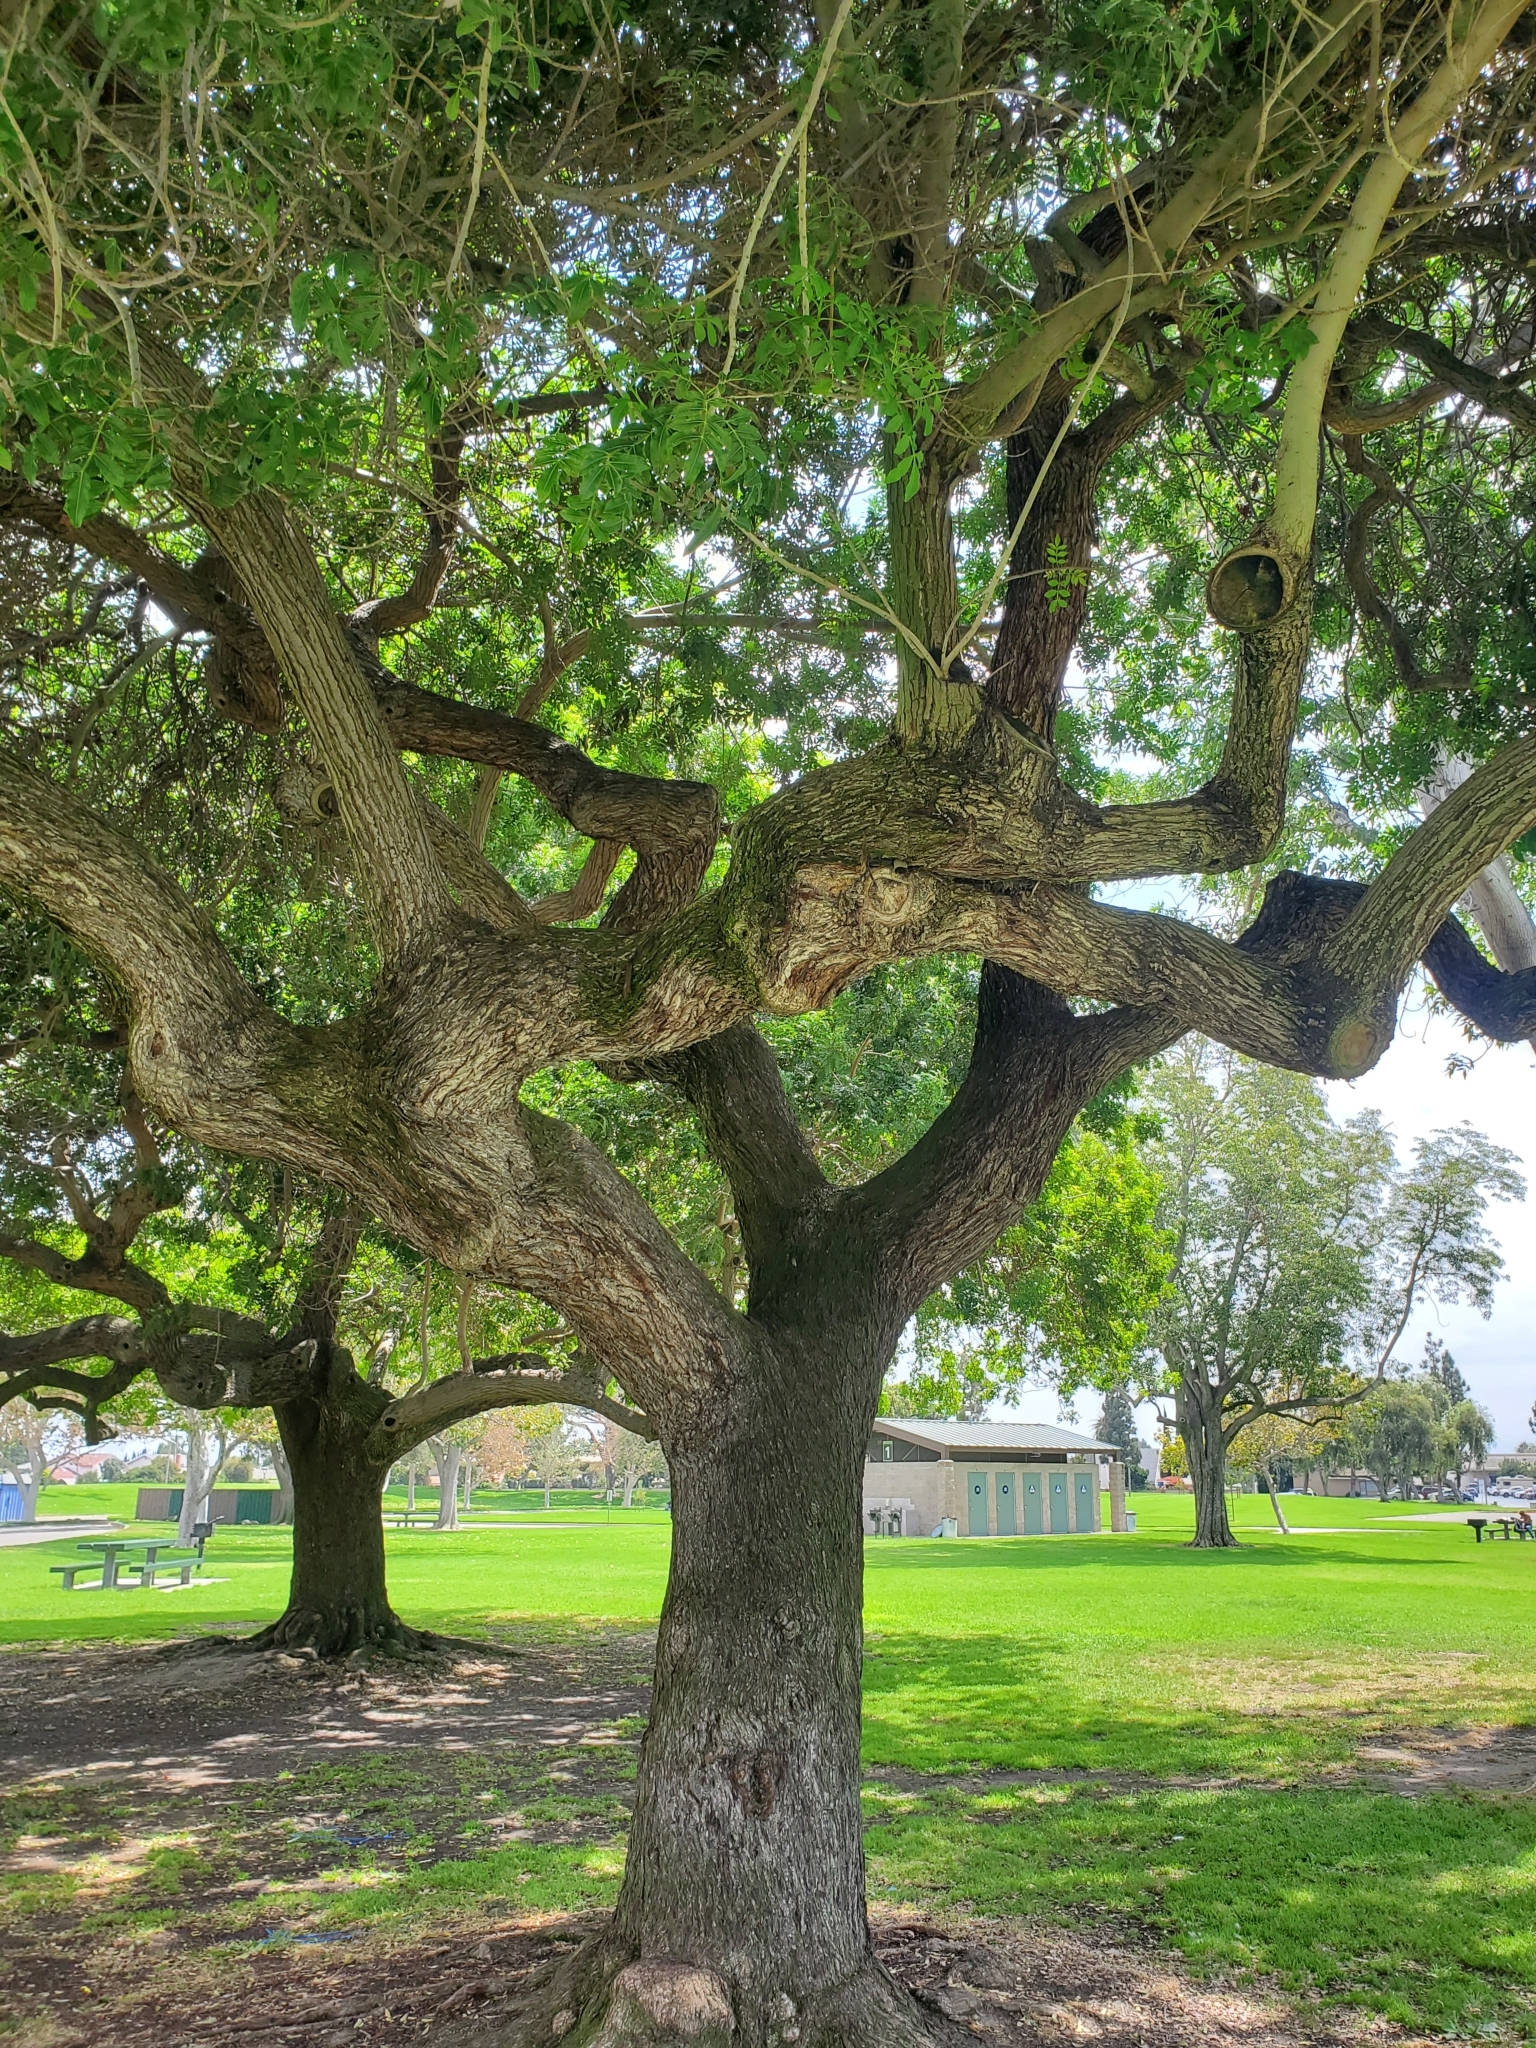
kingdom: Plantae
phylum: Tracheophyta
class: Magnoliopsida
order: Sapindales
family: Anacardiaceae
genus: Schinus
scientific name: Schinus terebinthifolia
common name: Brazilian peppertree
